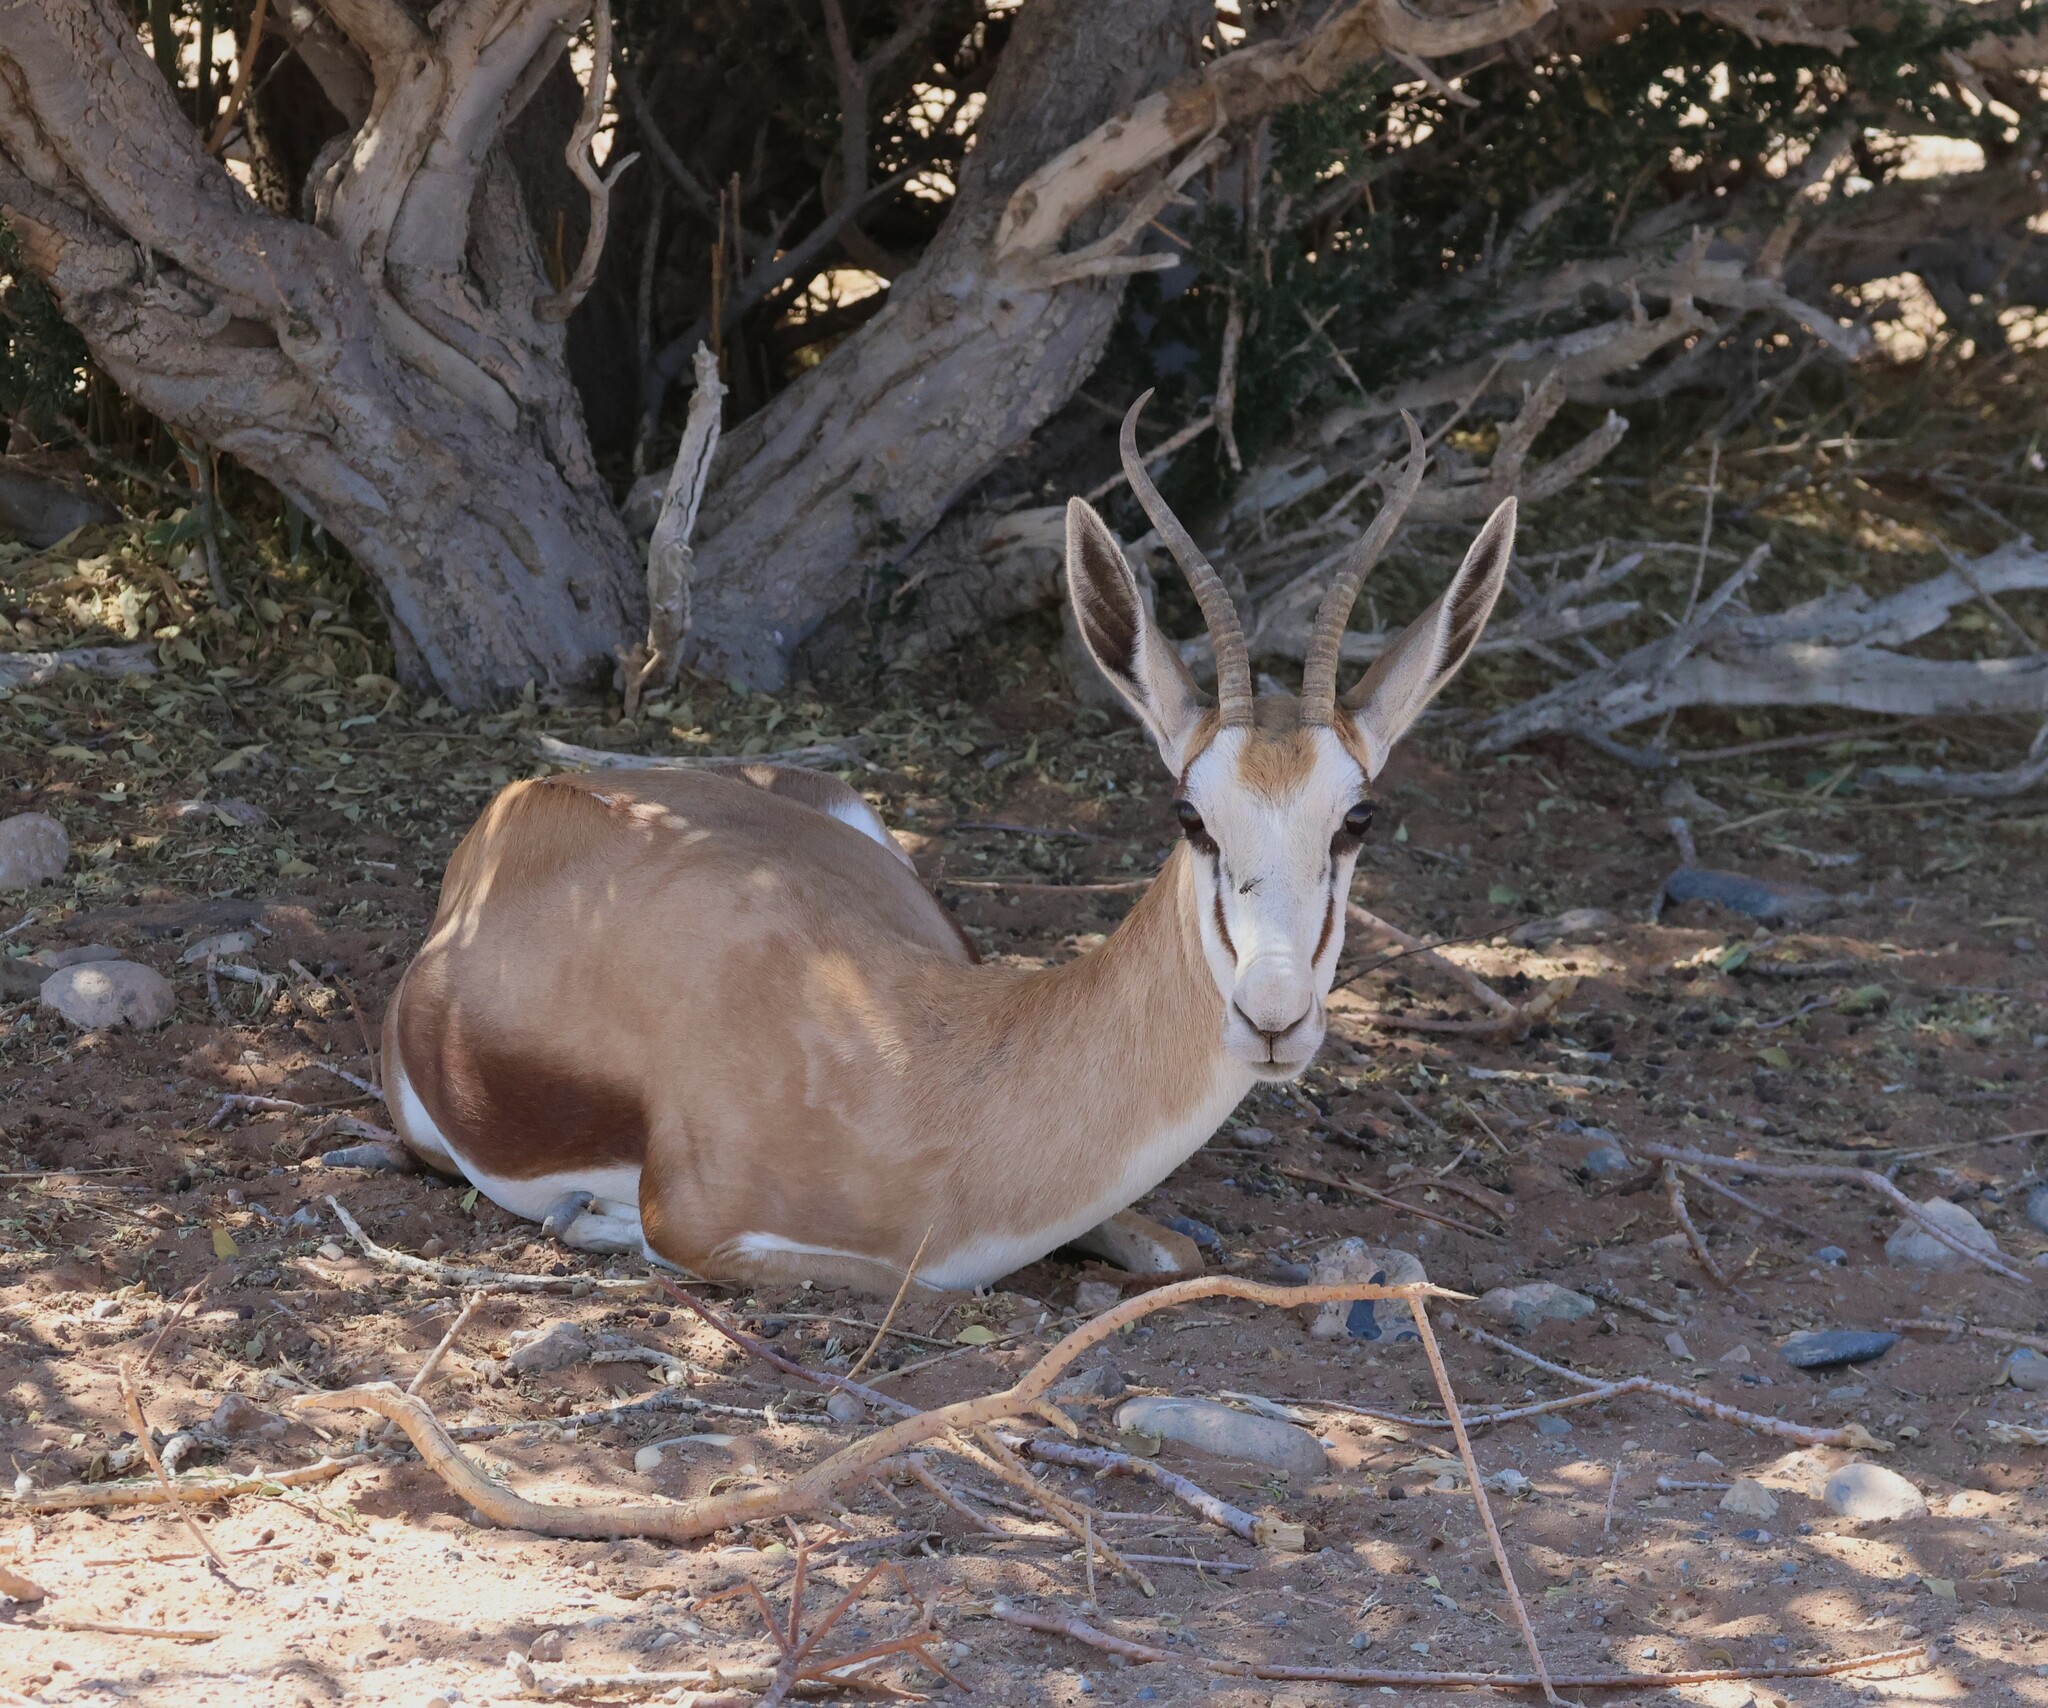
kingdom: Animalia
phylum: Chordata
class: Mammalia
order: Artiodactyla
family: Bovidae
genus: Antidorcas
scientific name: Antidorcas marsupialis
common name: Springbok
